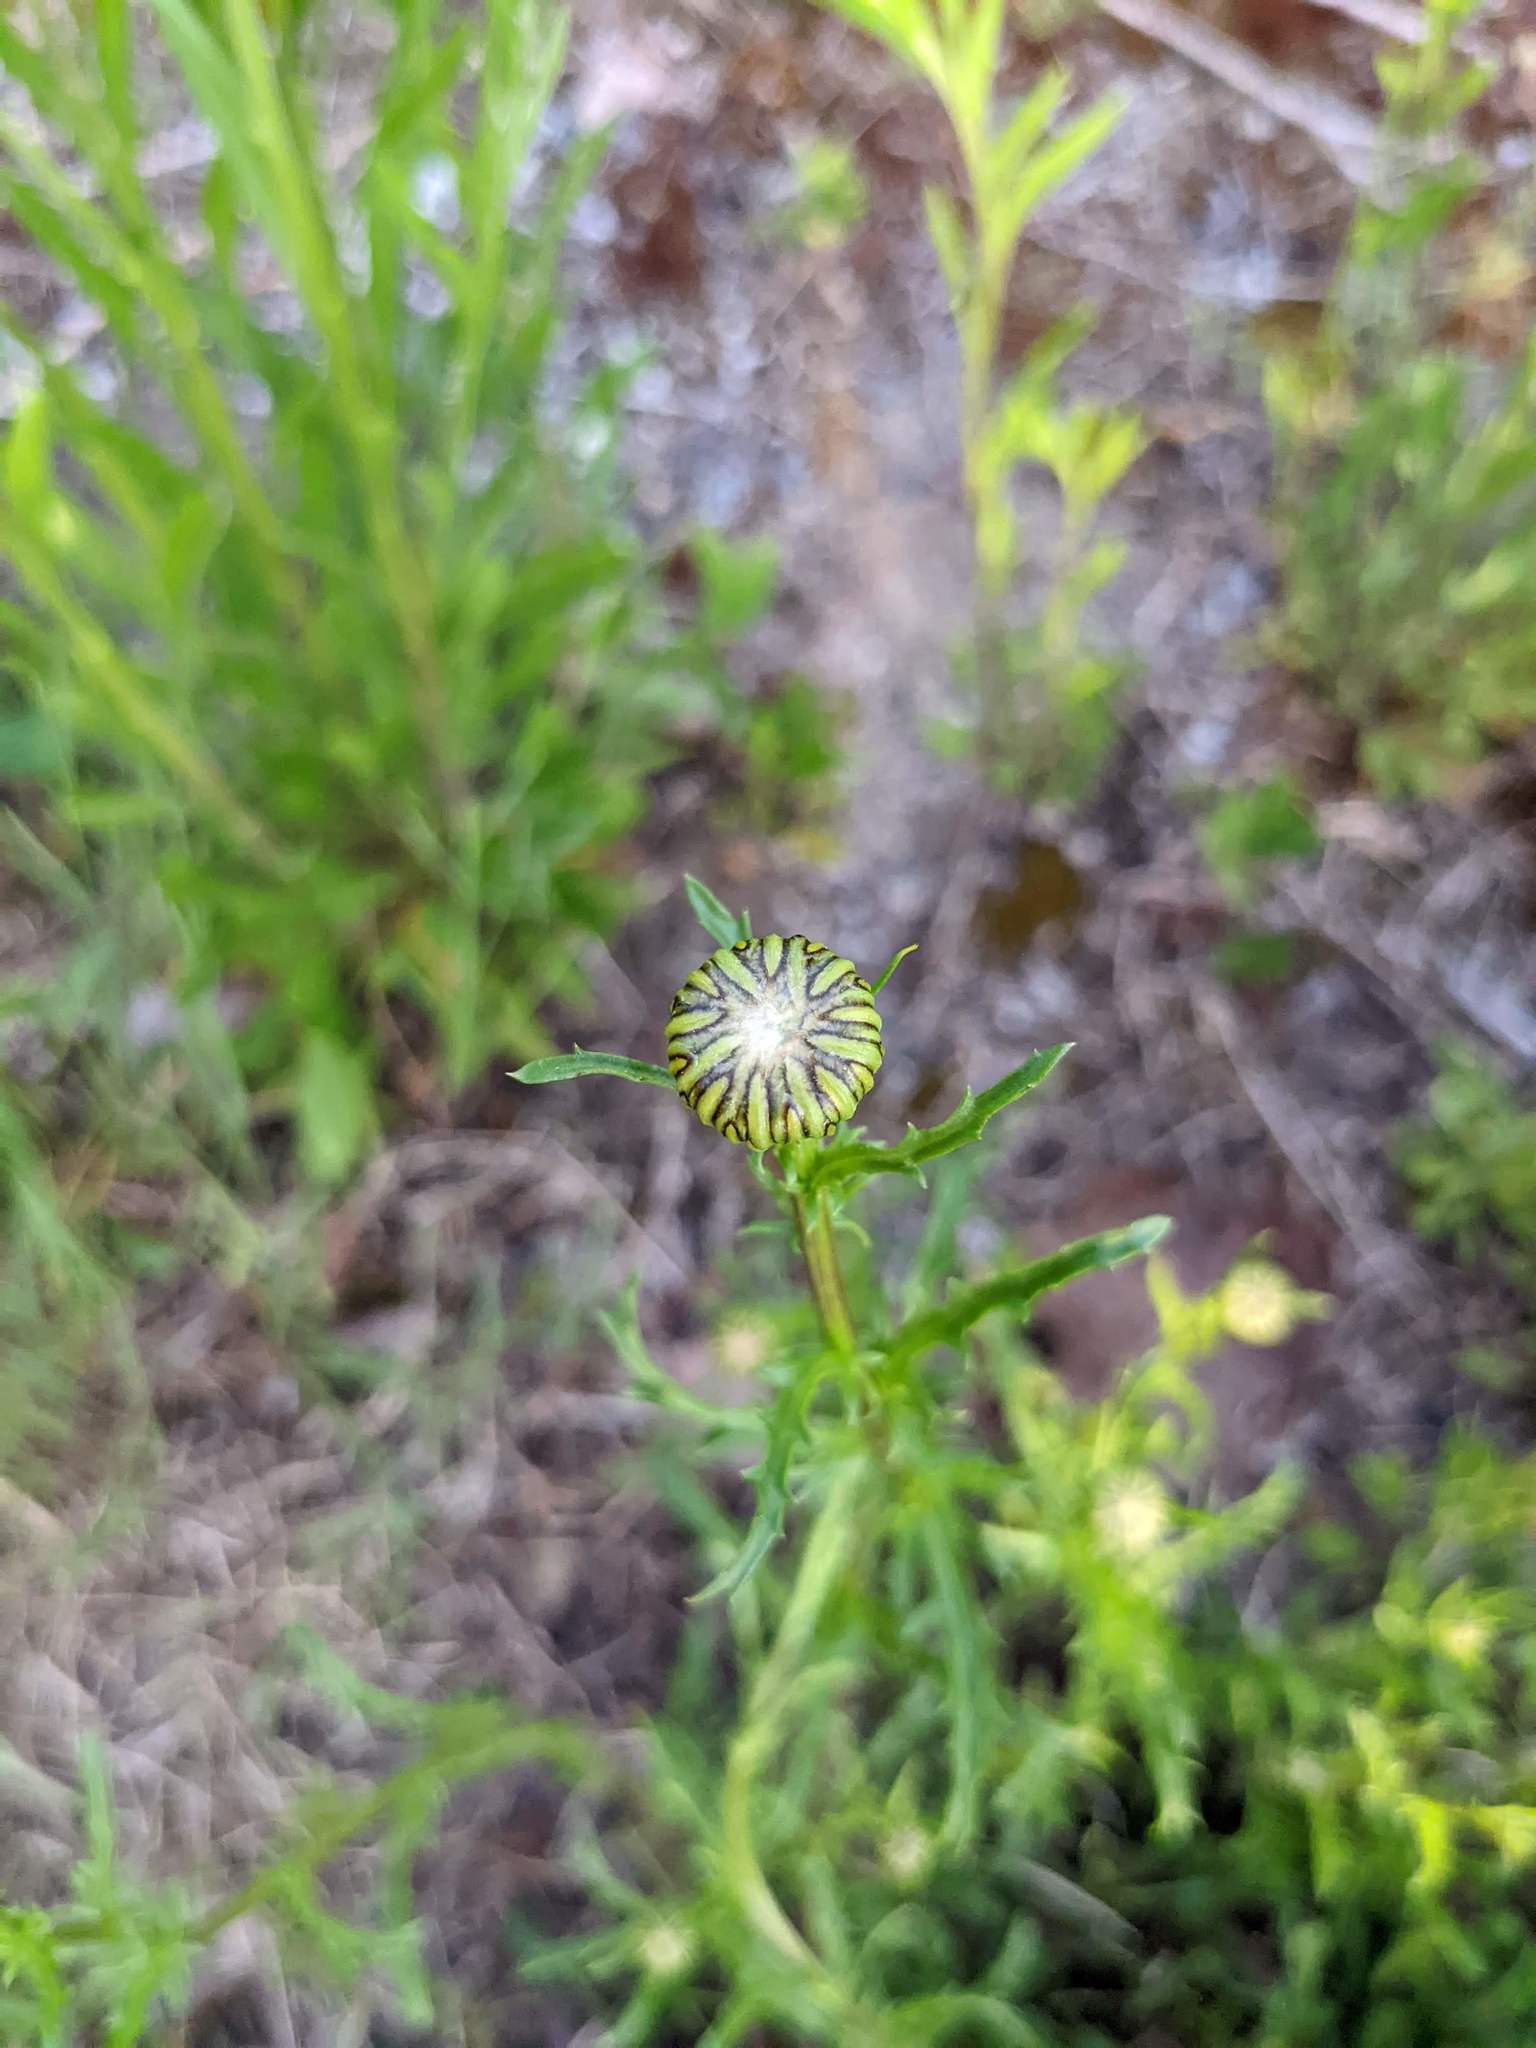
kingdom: Plantae
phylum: Tracheophyta
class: Magnoliopsida
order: Asterales
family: Asteraceae
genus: Leucanthemum
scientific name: Leucanthemum vulgare
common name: Oxeye daisy
